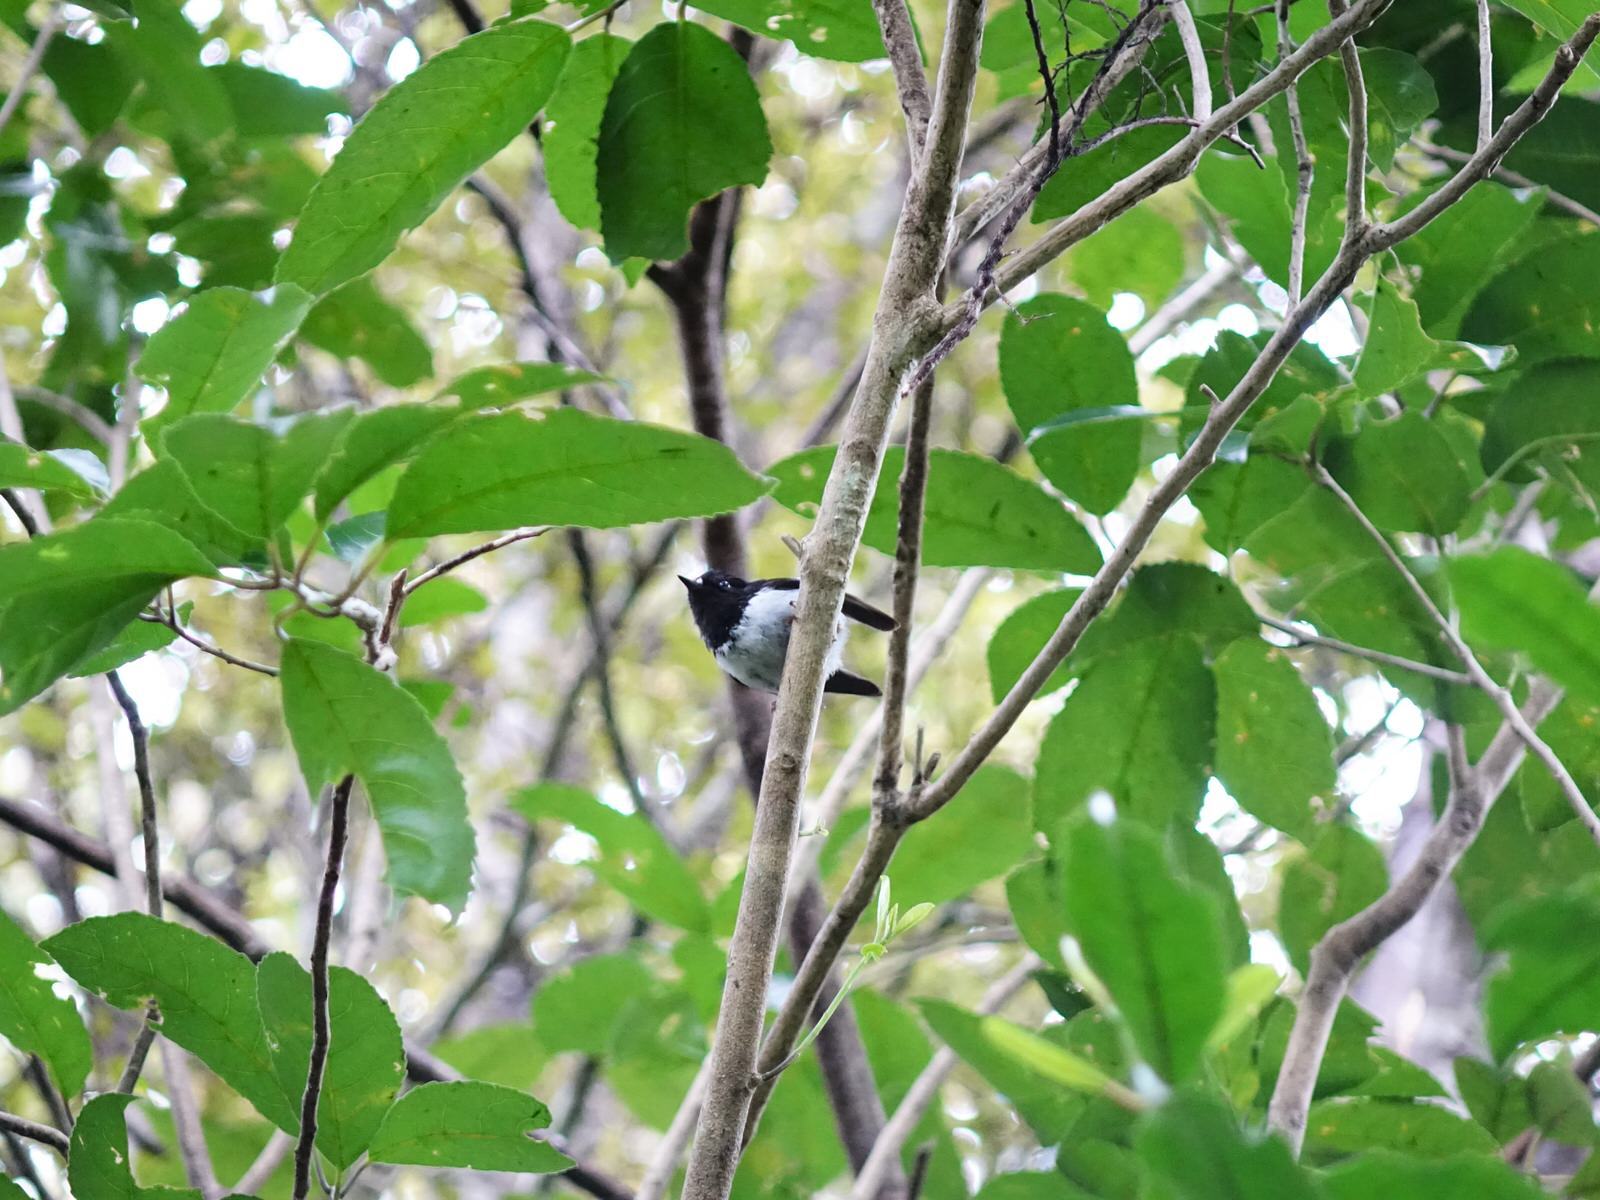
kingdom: Animalia
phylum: Chordata
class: Aves
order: Passeriformes
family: Petroicidae
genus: Petroica
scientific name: Petroica macrocephala
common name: Tomtit
